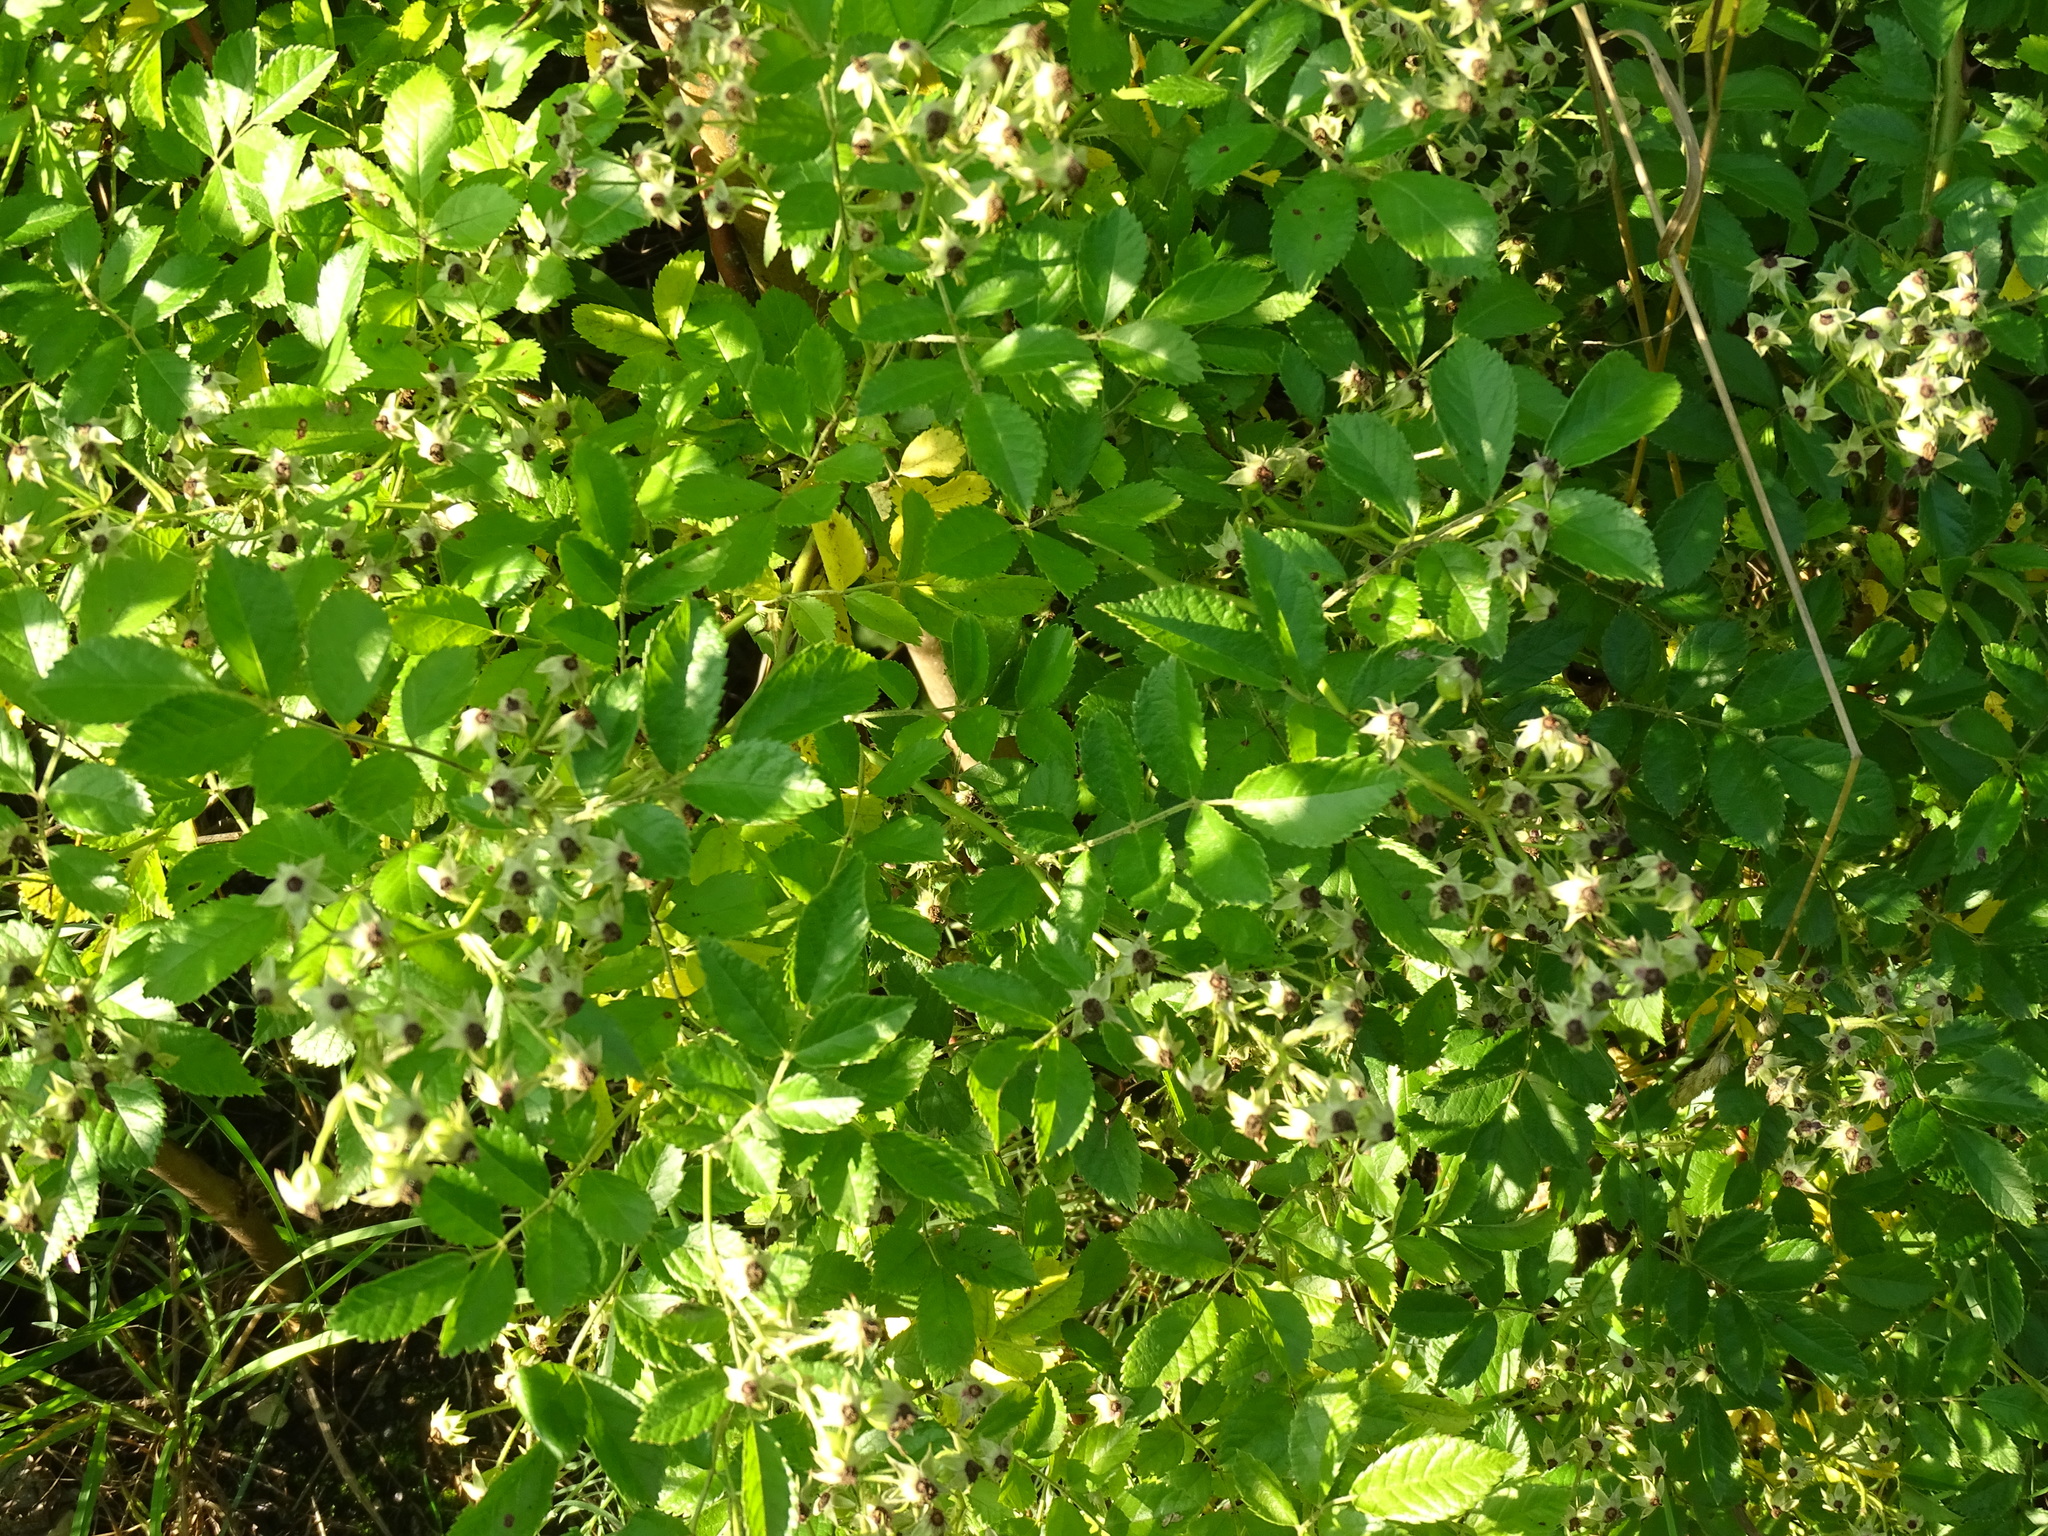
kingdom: Plantae
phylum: Tracheophyta
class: Magnoliopsida
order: Rosales
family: Rosaceae
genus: Rosa
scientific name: Rosa multiflora
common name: Multiflora rose
